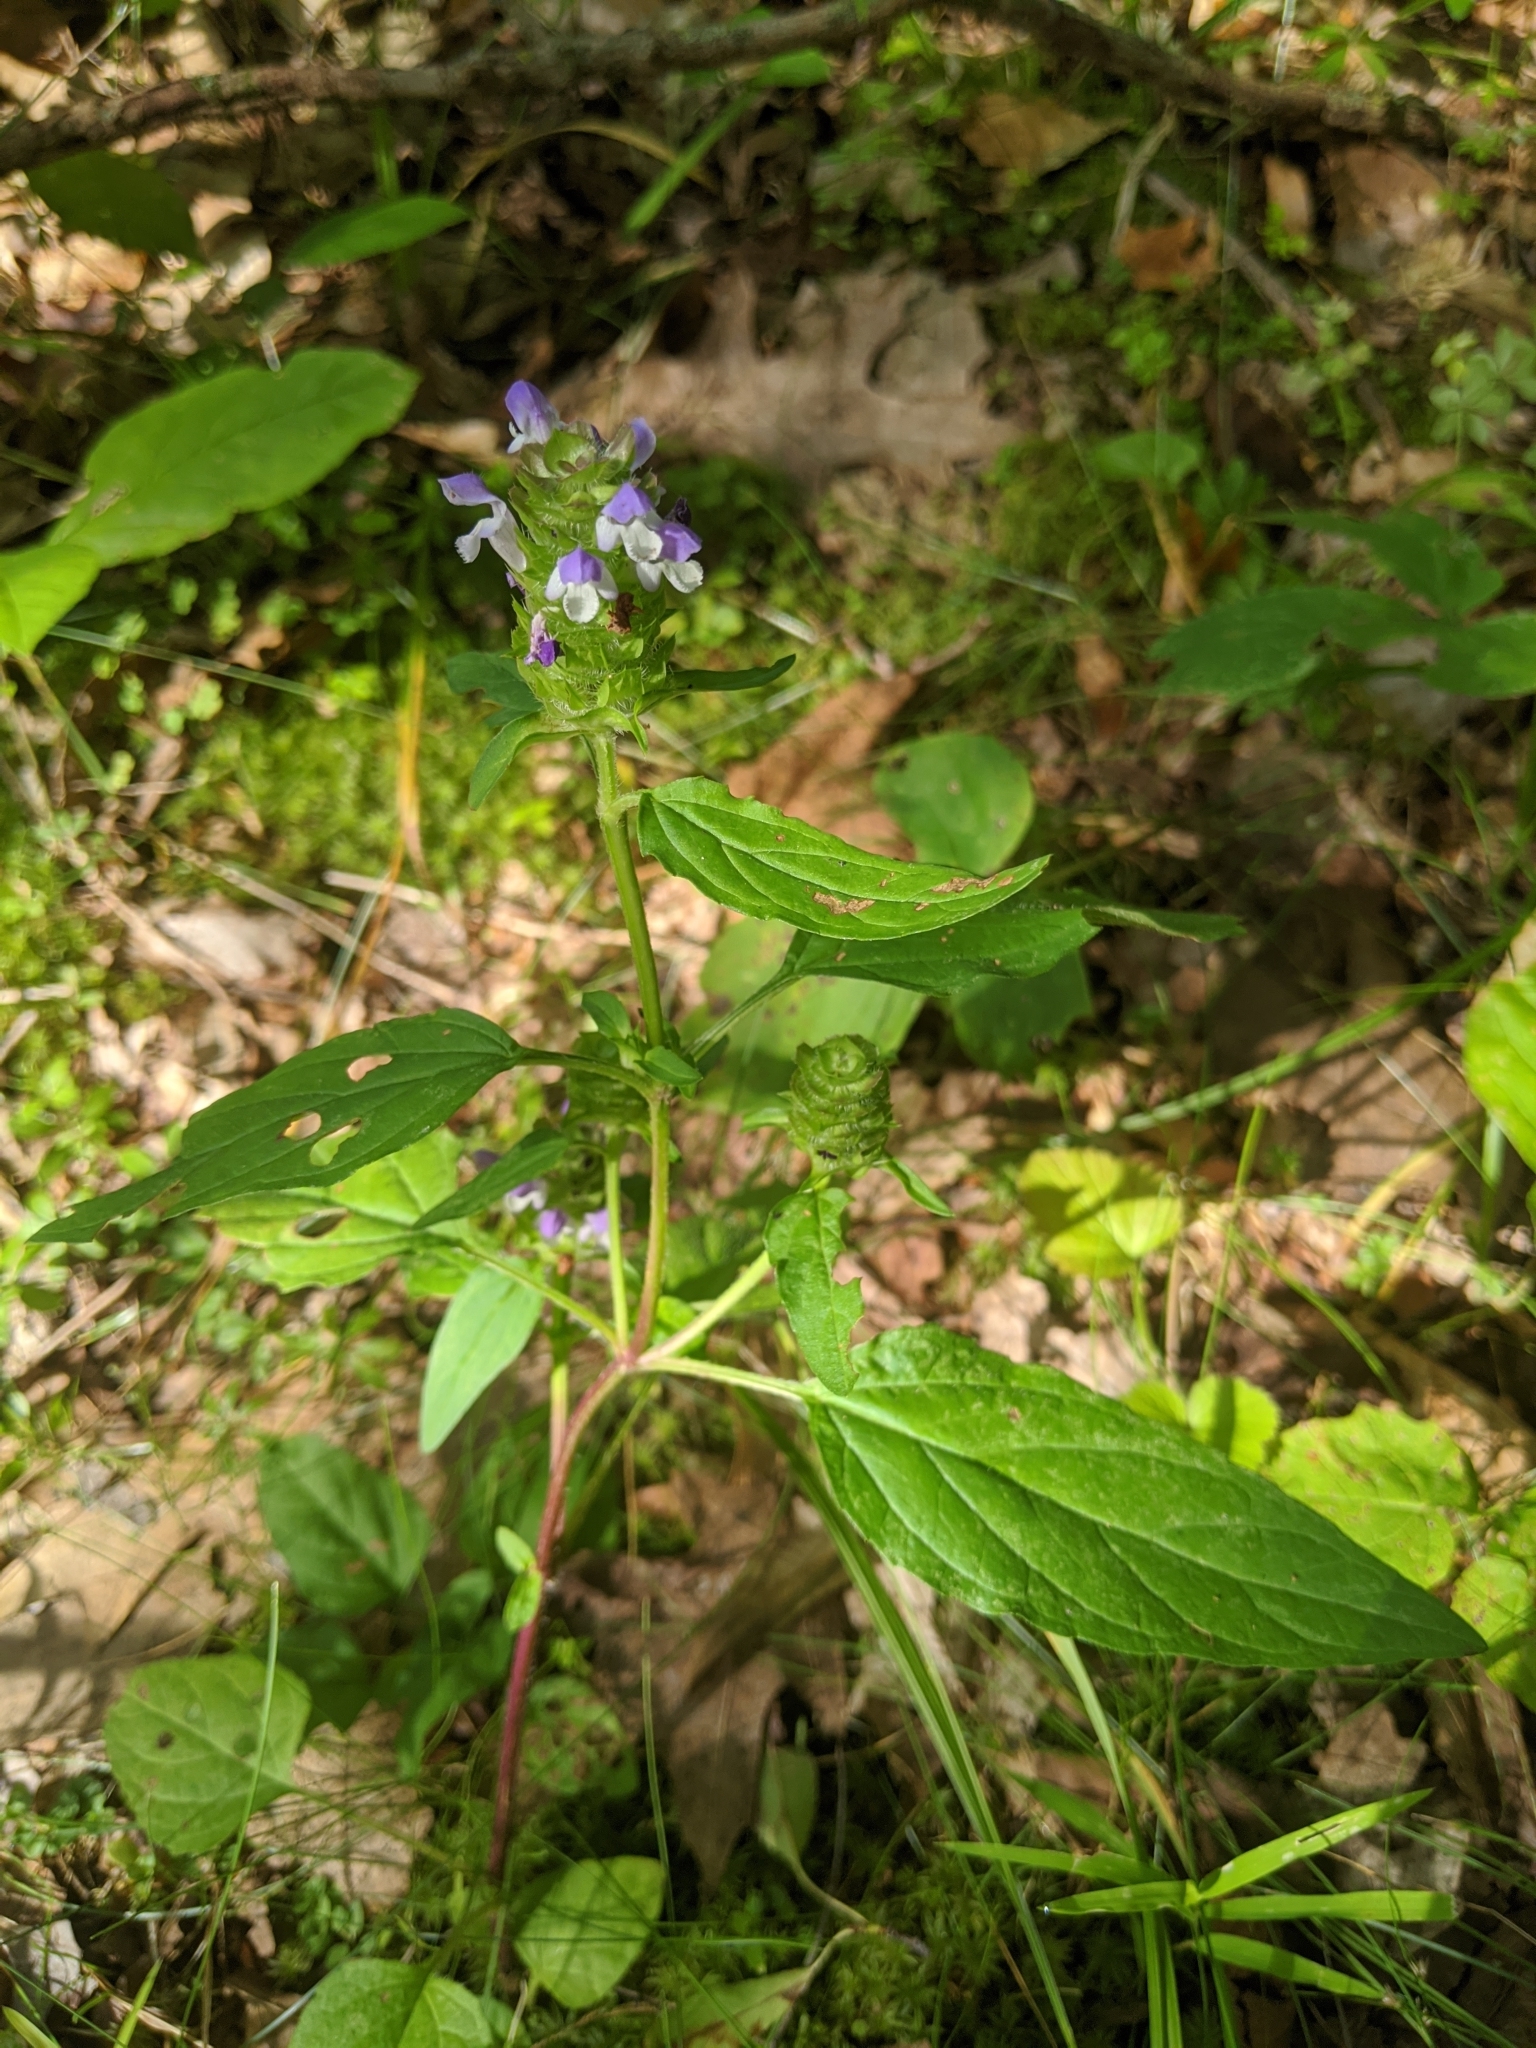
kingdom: Plantae
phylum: Tracheophyta
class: Magnoliopsida
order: Lamiales
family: Lamiaceae
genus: Prunella
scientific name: Prunella vulgaris
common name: Heal-all
